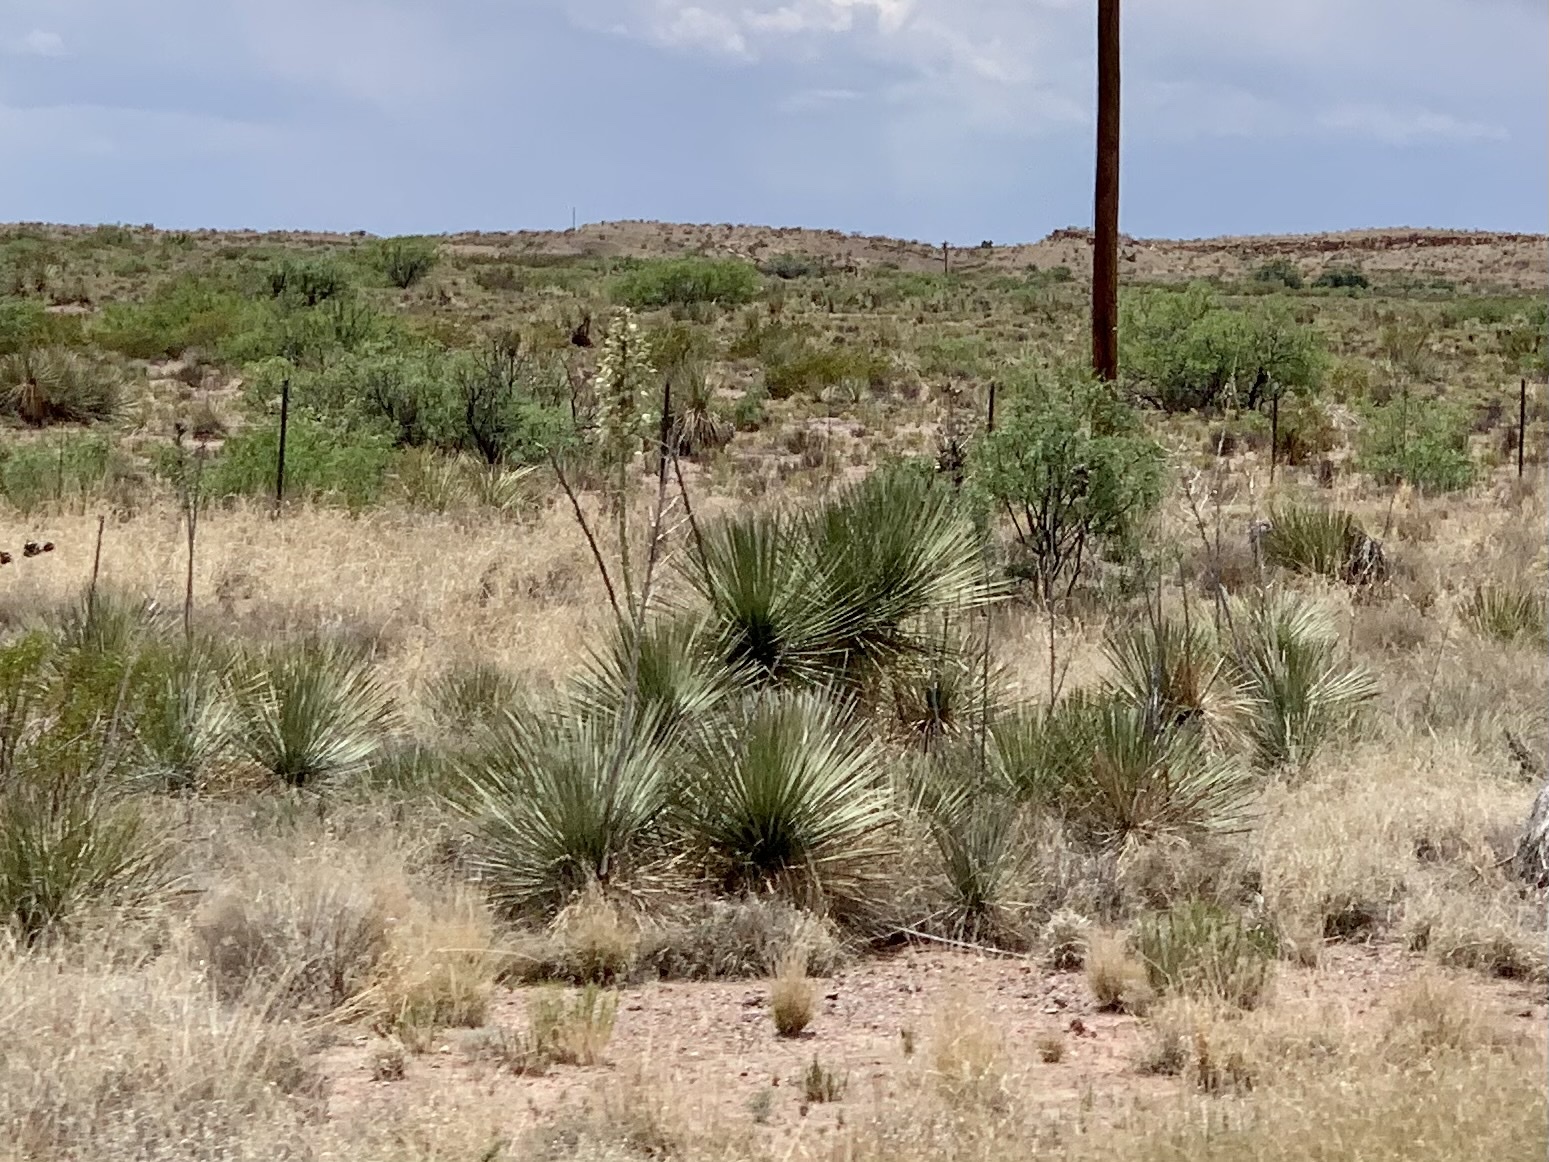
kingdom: Plantae
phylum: Tracheophyta
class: Liliopsida
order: Asparagales
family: Asparagaceae
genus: Yucca
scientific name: Yucca elata
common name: Palmella
